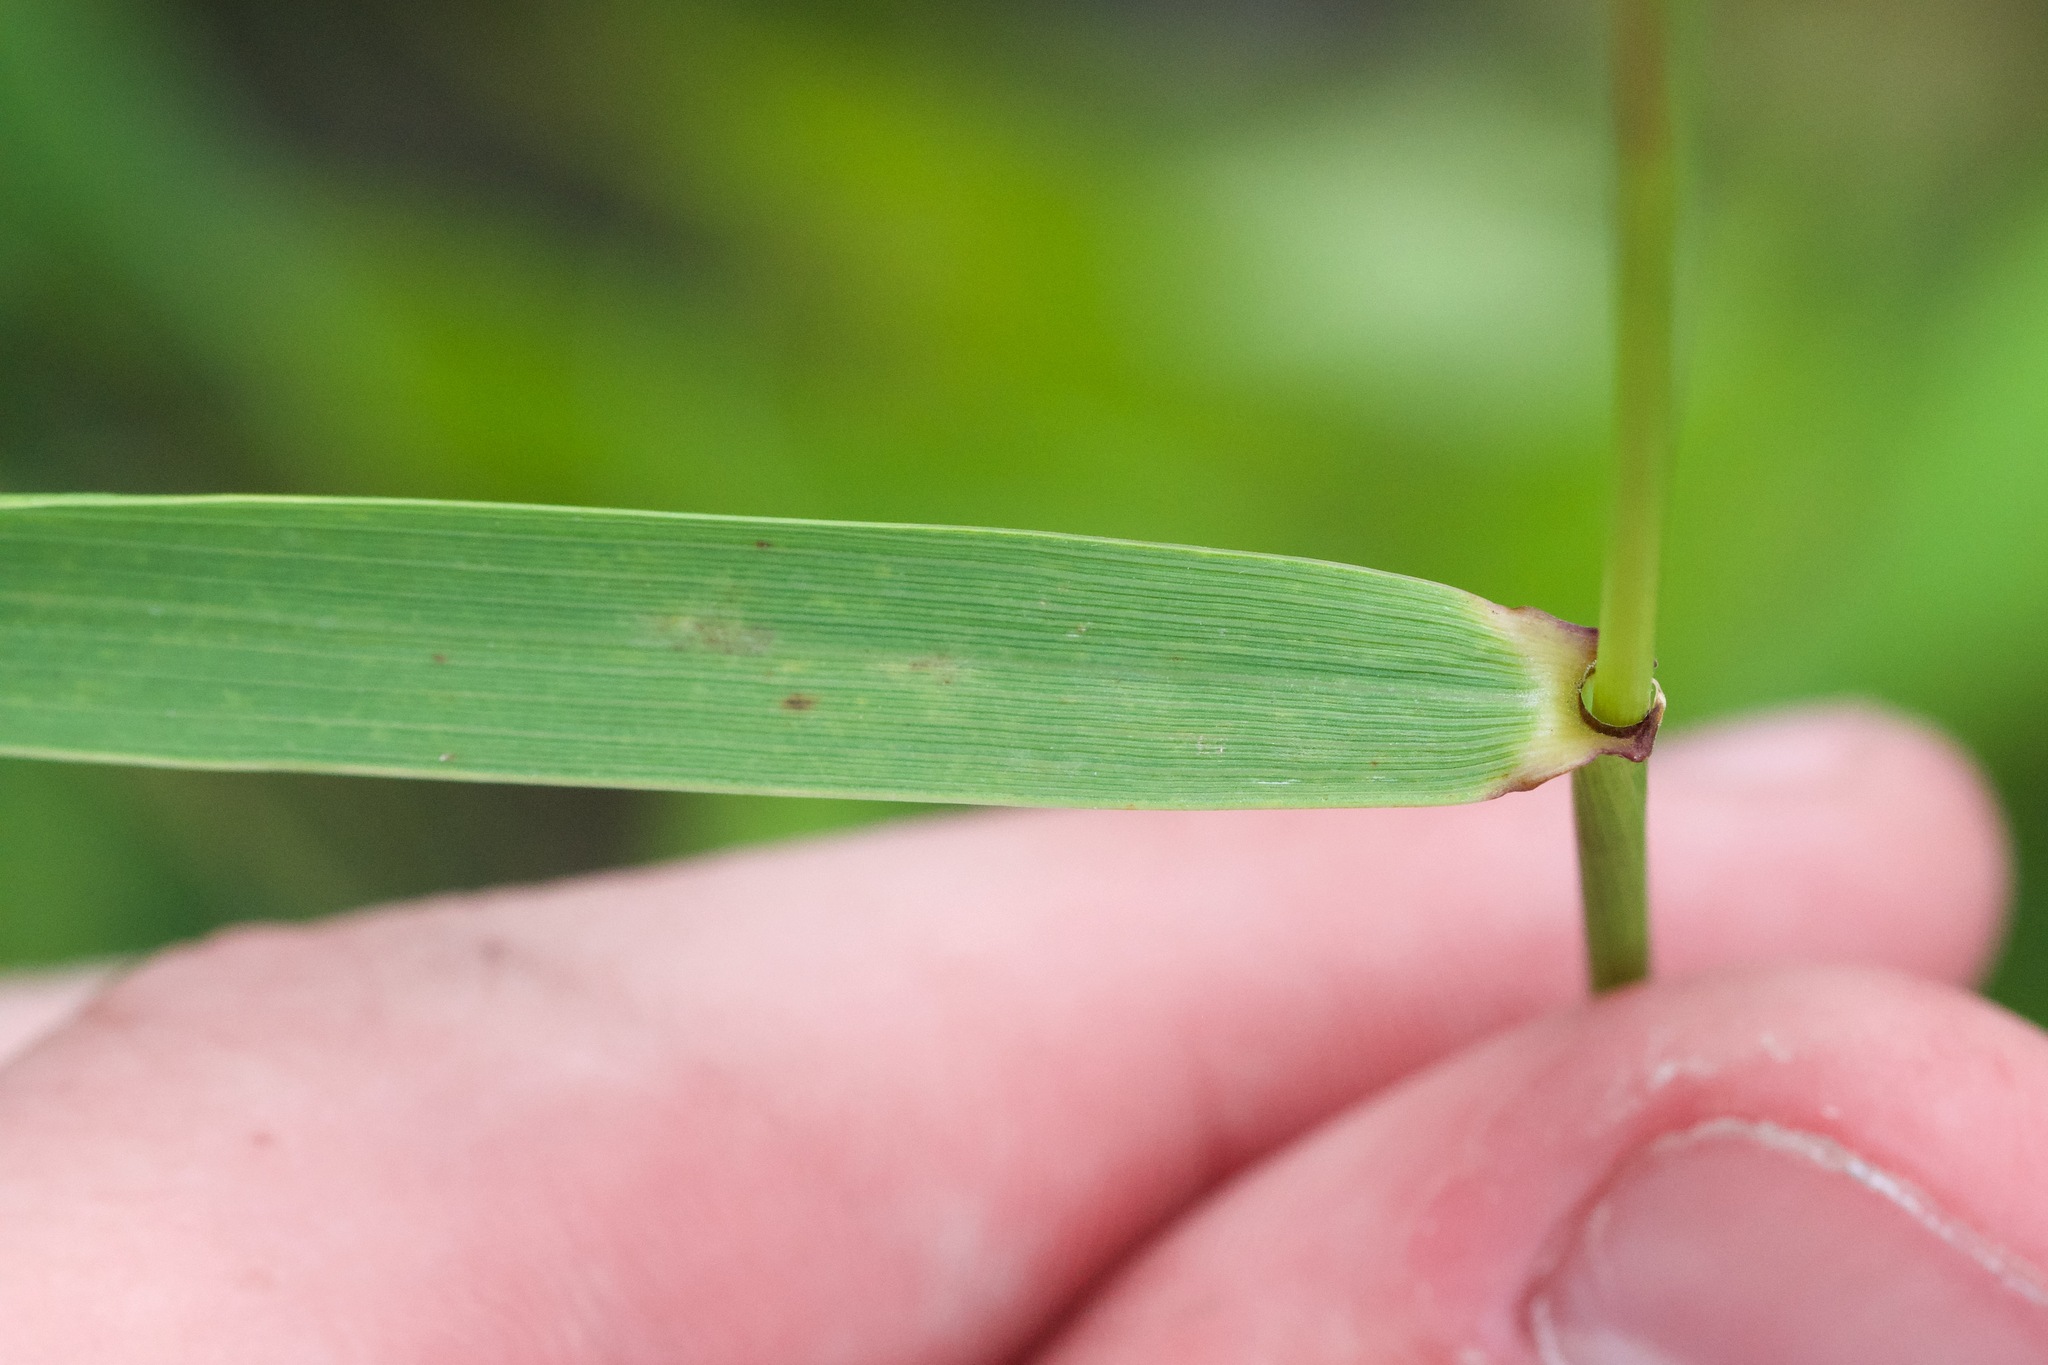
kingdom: Plantae
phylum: Tracheophyta
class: Liliopsida
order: Poales
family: Poaceae
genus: Elymus
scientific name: Elymus riparius
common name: Eastern riverbank wild rye
